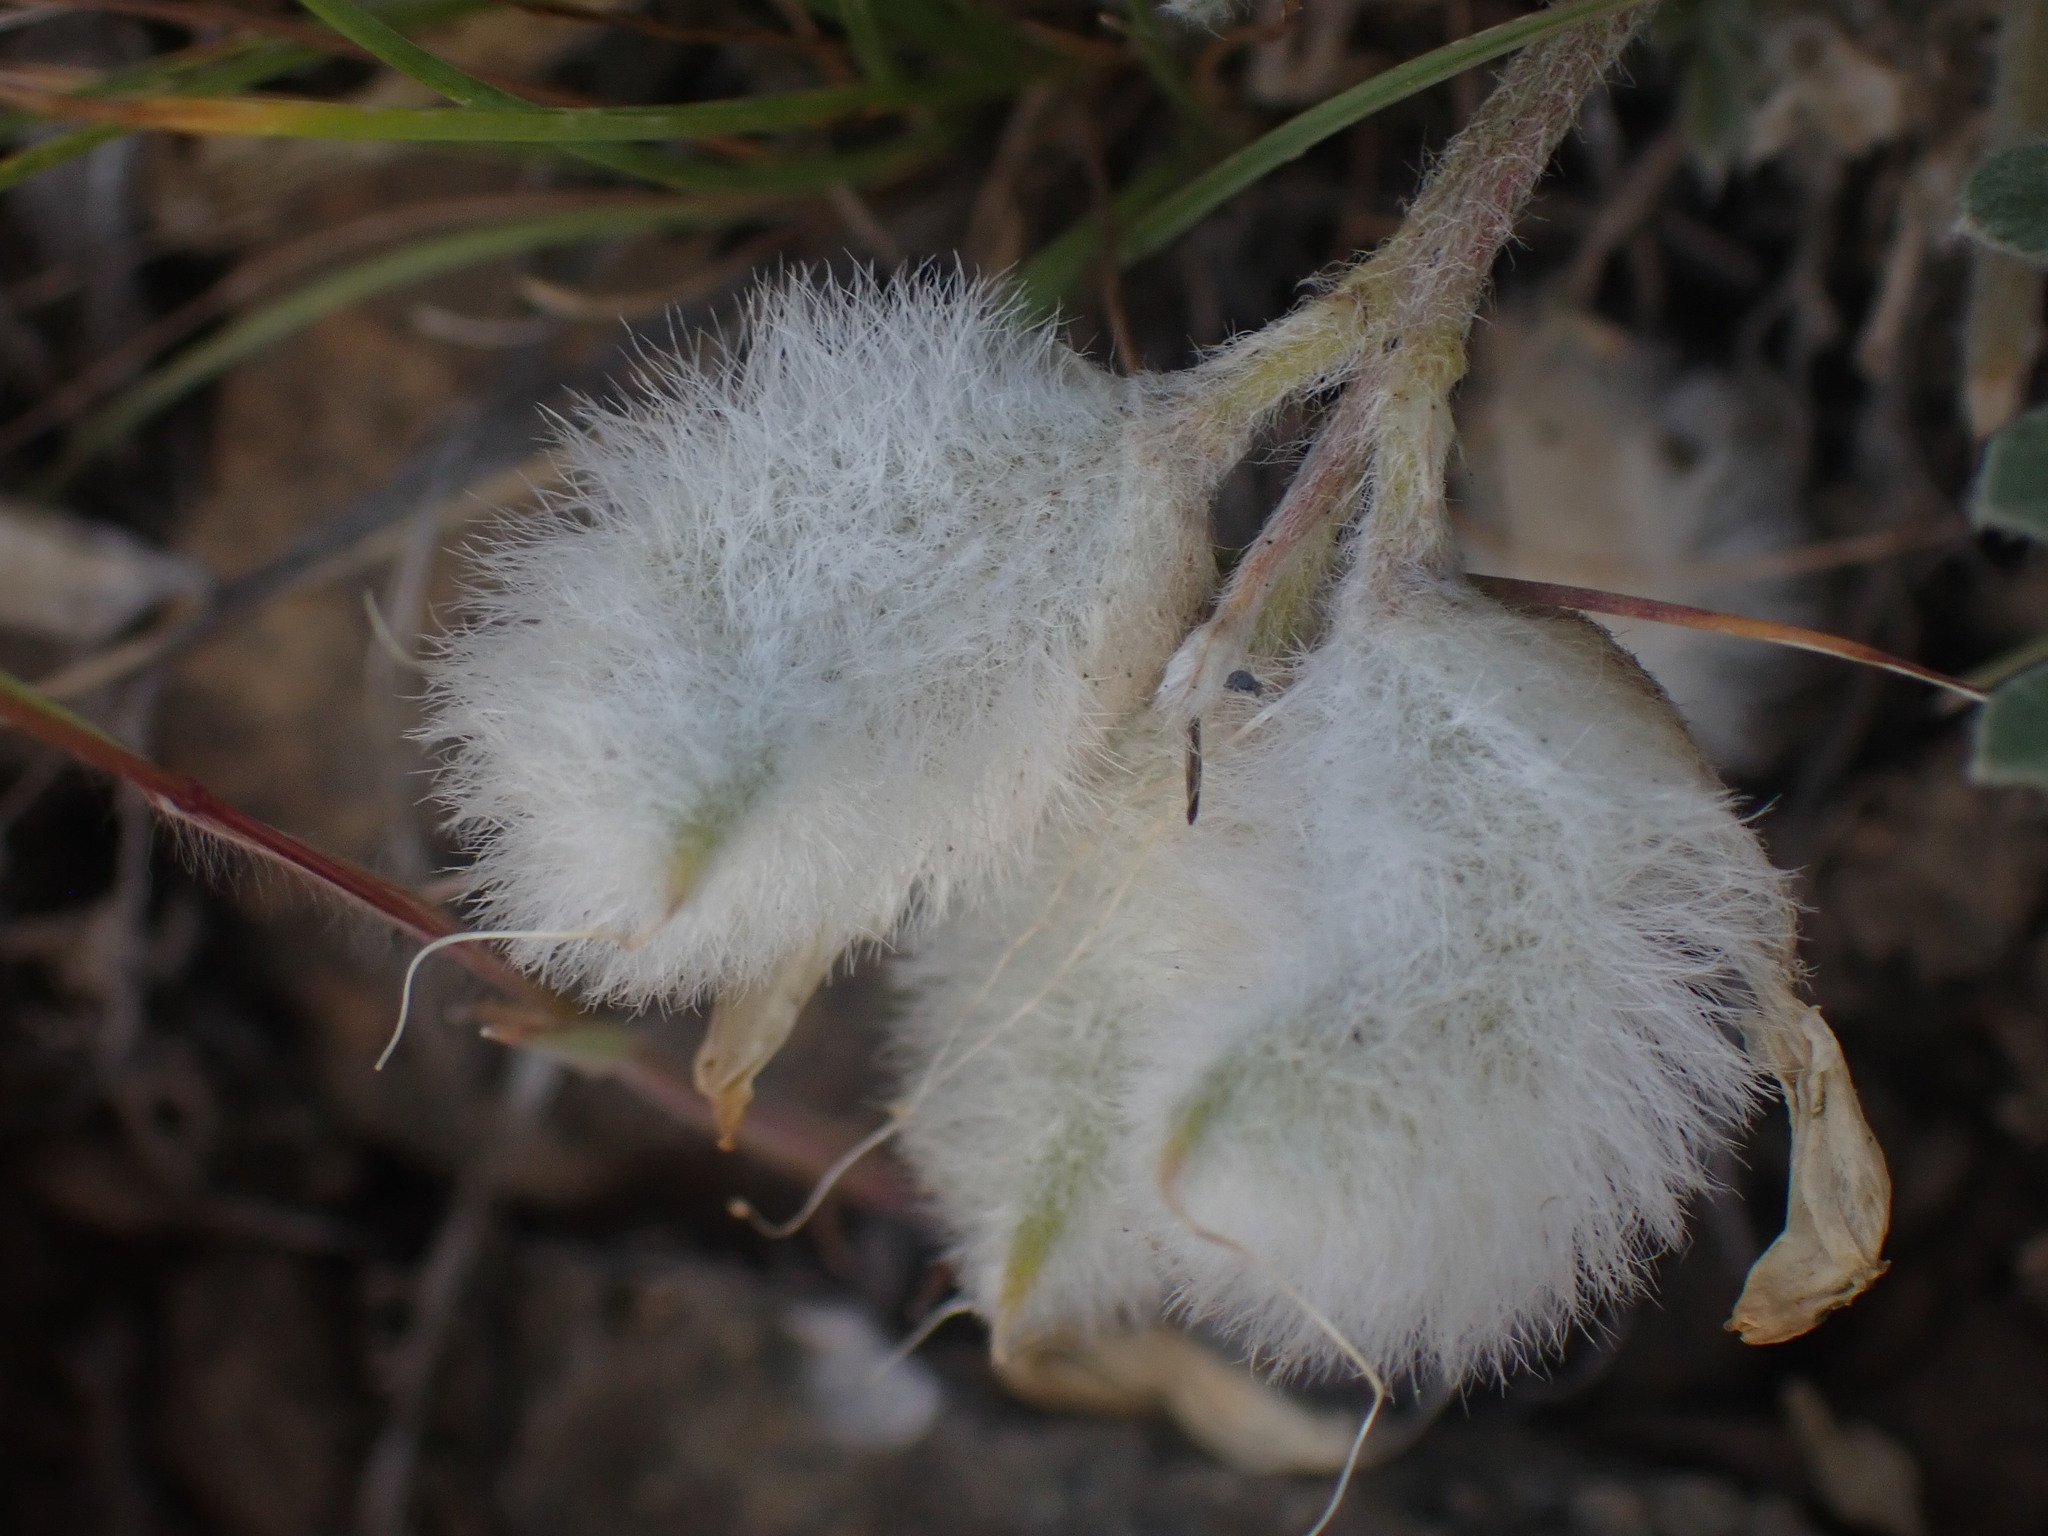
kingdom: Plantae
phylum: Tracheophyta
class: Magnoliopsida
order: Fabales
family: Fabaceae
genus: Astragalus
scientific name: Astragalus purshii
